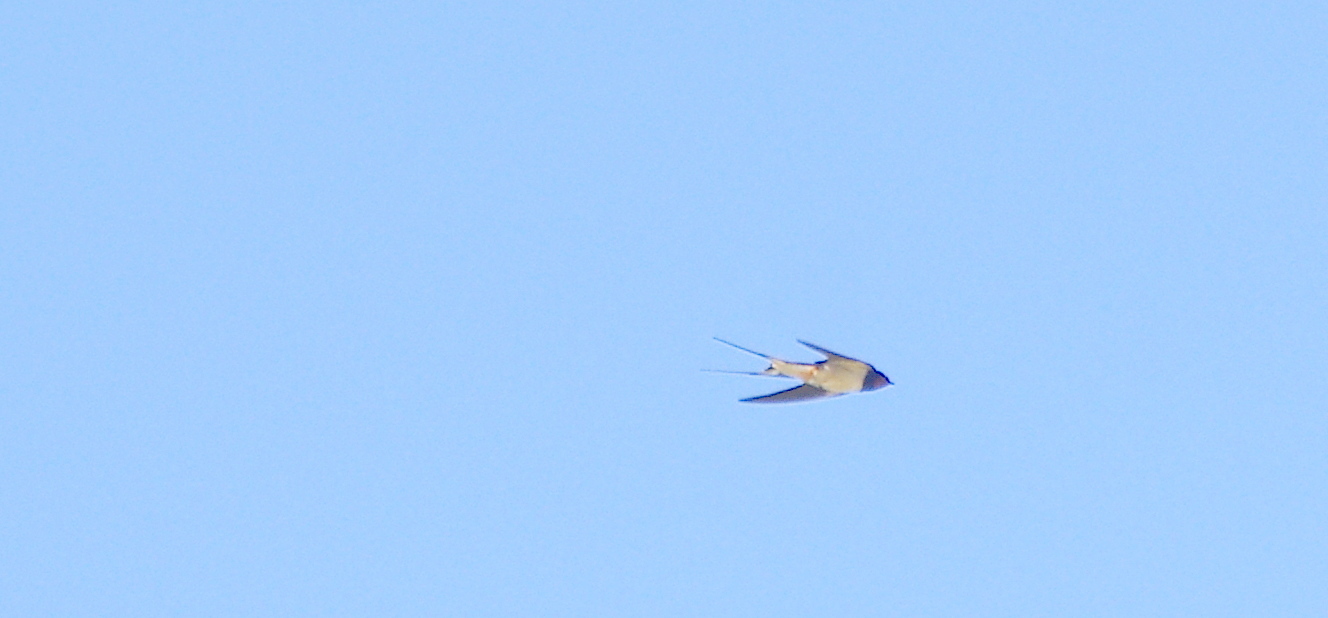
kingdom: Animalia
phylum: Chordata
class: Aves
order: Passeriformes
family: Hirundinidae
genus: Hirundo
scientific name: Hirundo rustica
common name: Barn swallow
